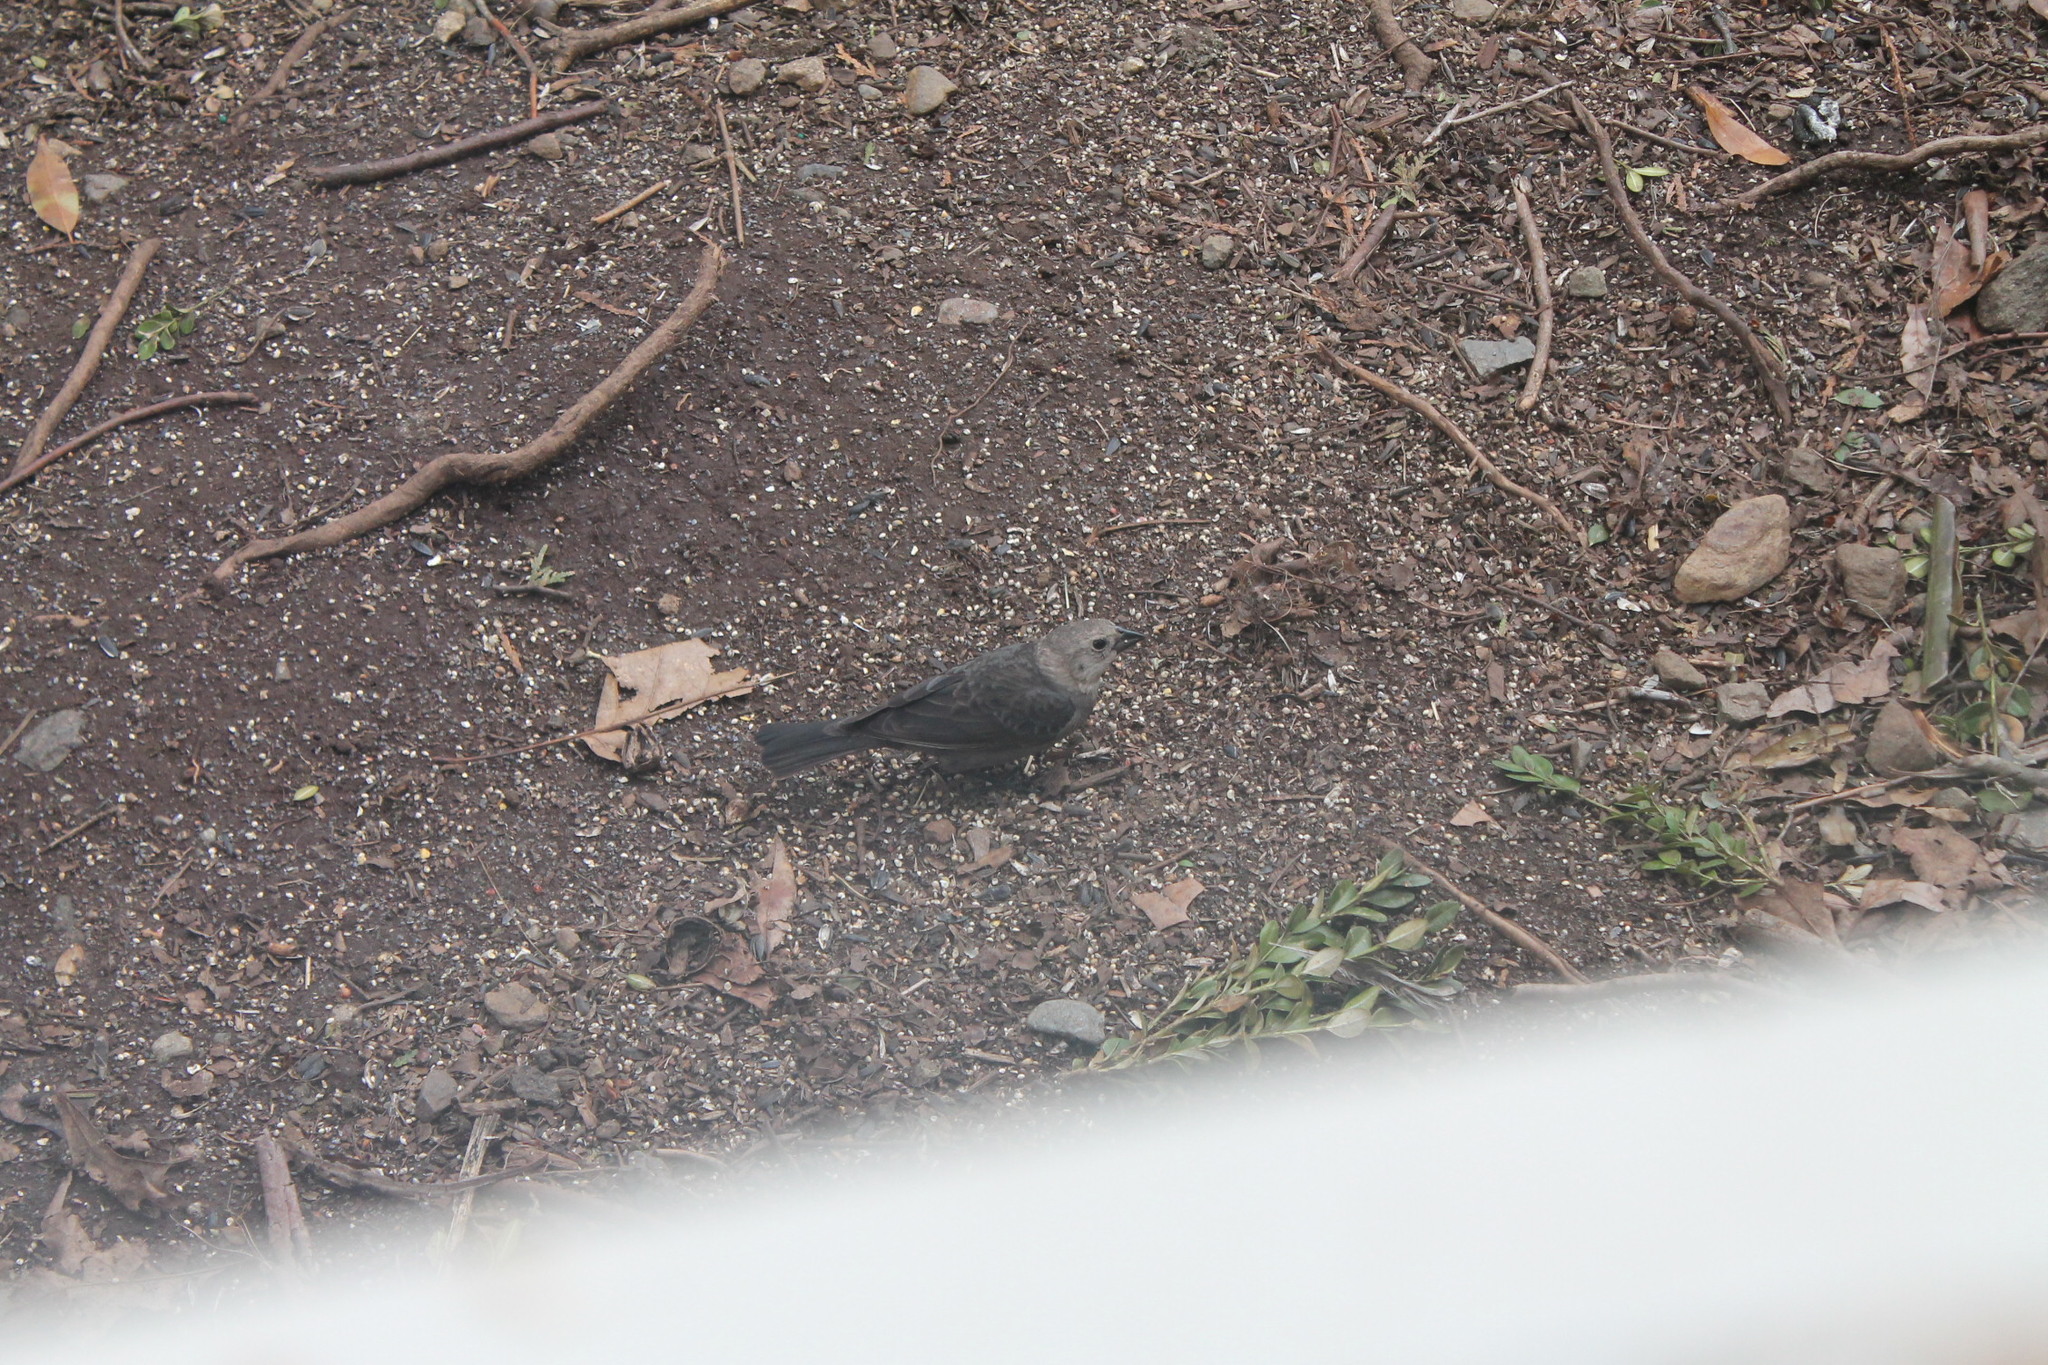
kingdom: Animalia
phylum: Chordata
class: Aves
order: Passeriformes
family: Icteridae
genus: Molothrus
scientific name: Molothrus ater
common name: Brown-headed cowbird
